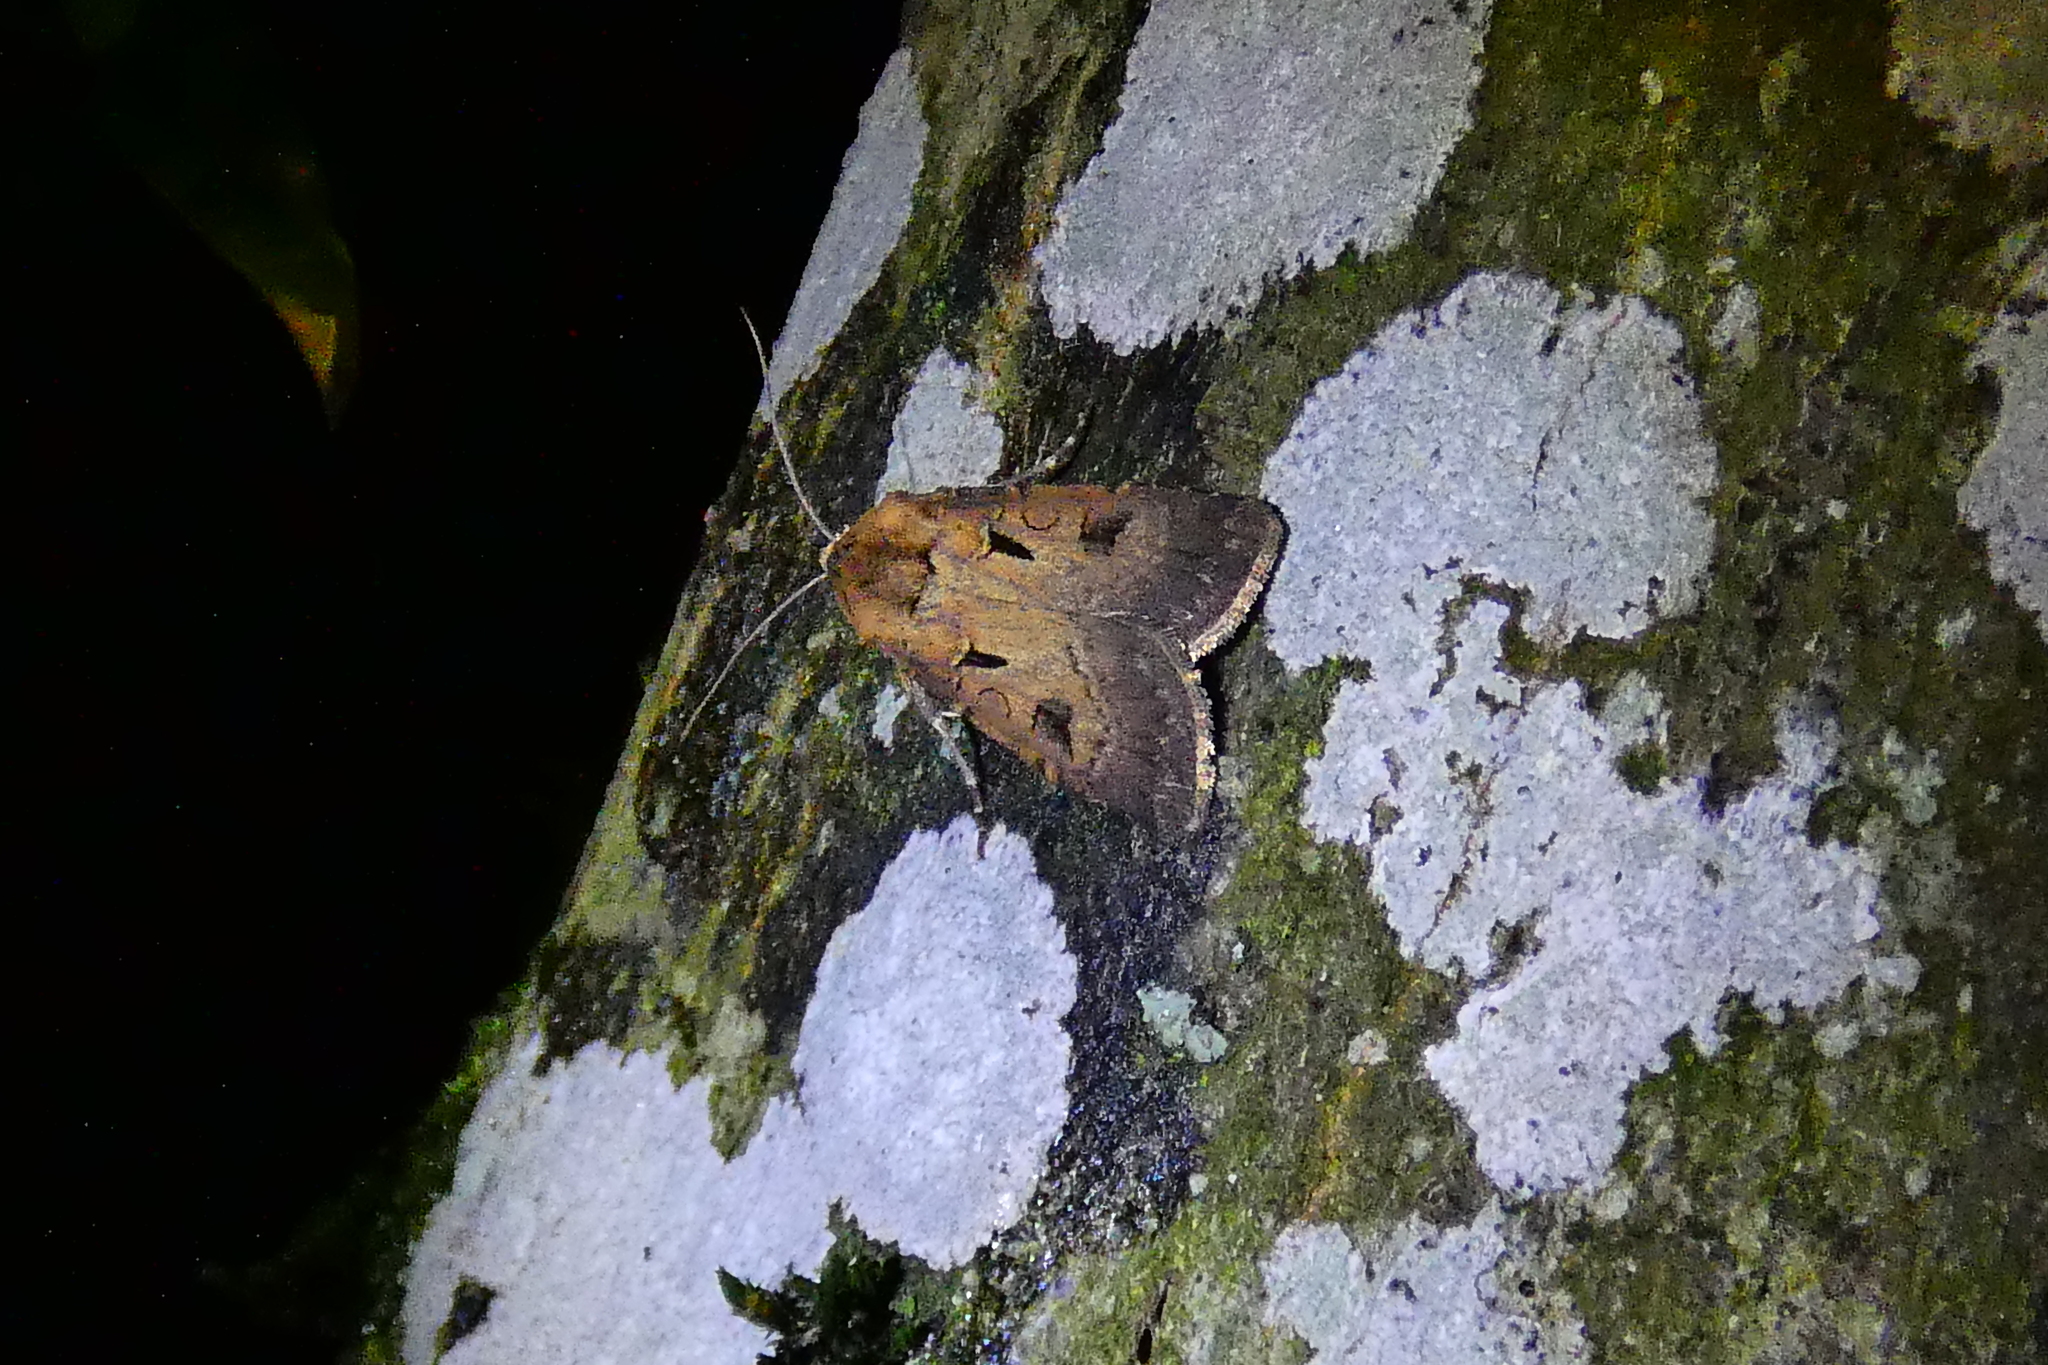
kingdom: Animalia
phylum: Arthropoda
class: Insecta
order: Lepidoptera
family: Noctuidae
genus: Agrotis
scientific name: Agrotis exclamationis
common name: Heart and dart
